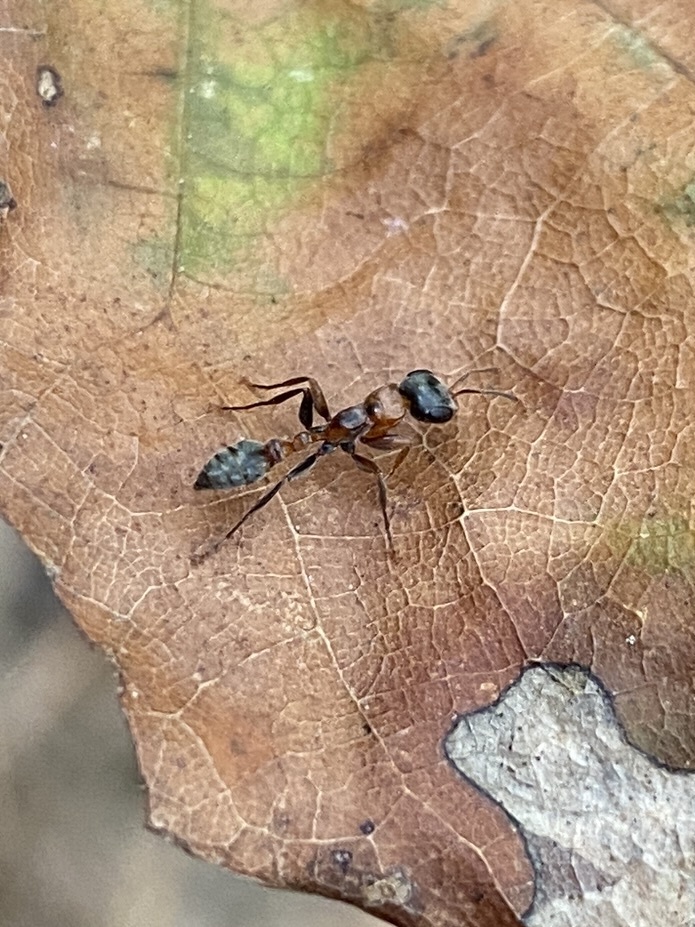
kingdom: Animalia
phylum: Arthropoda
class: Insecta
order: Hymenoptera
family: Formicidae
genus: Pseudomyrmex
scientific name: Pseudomyrmex gracilis
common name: Graceful twig ant
